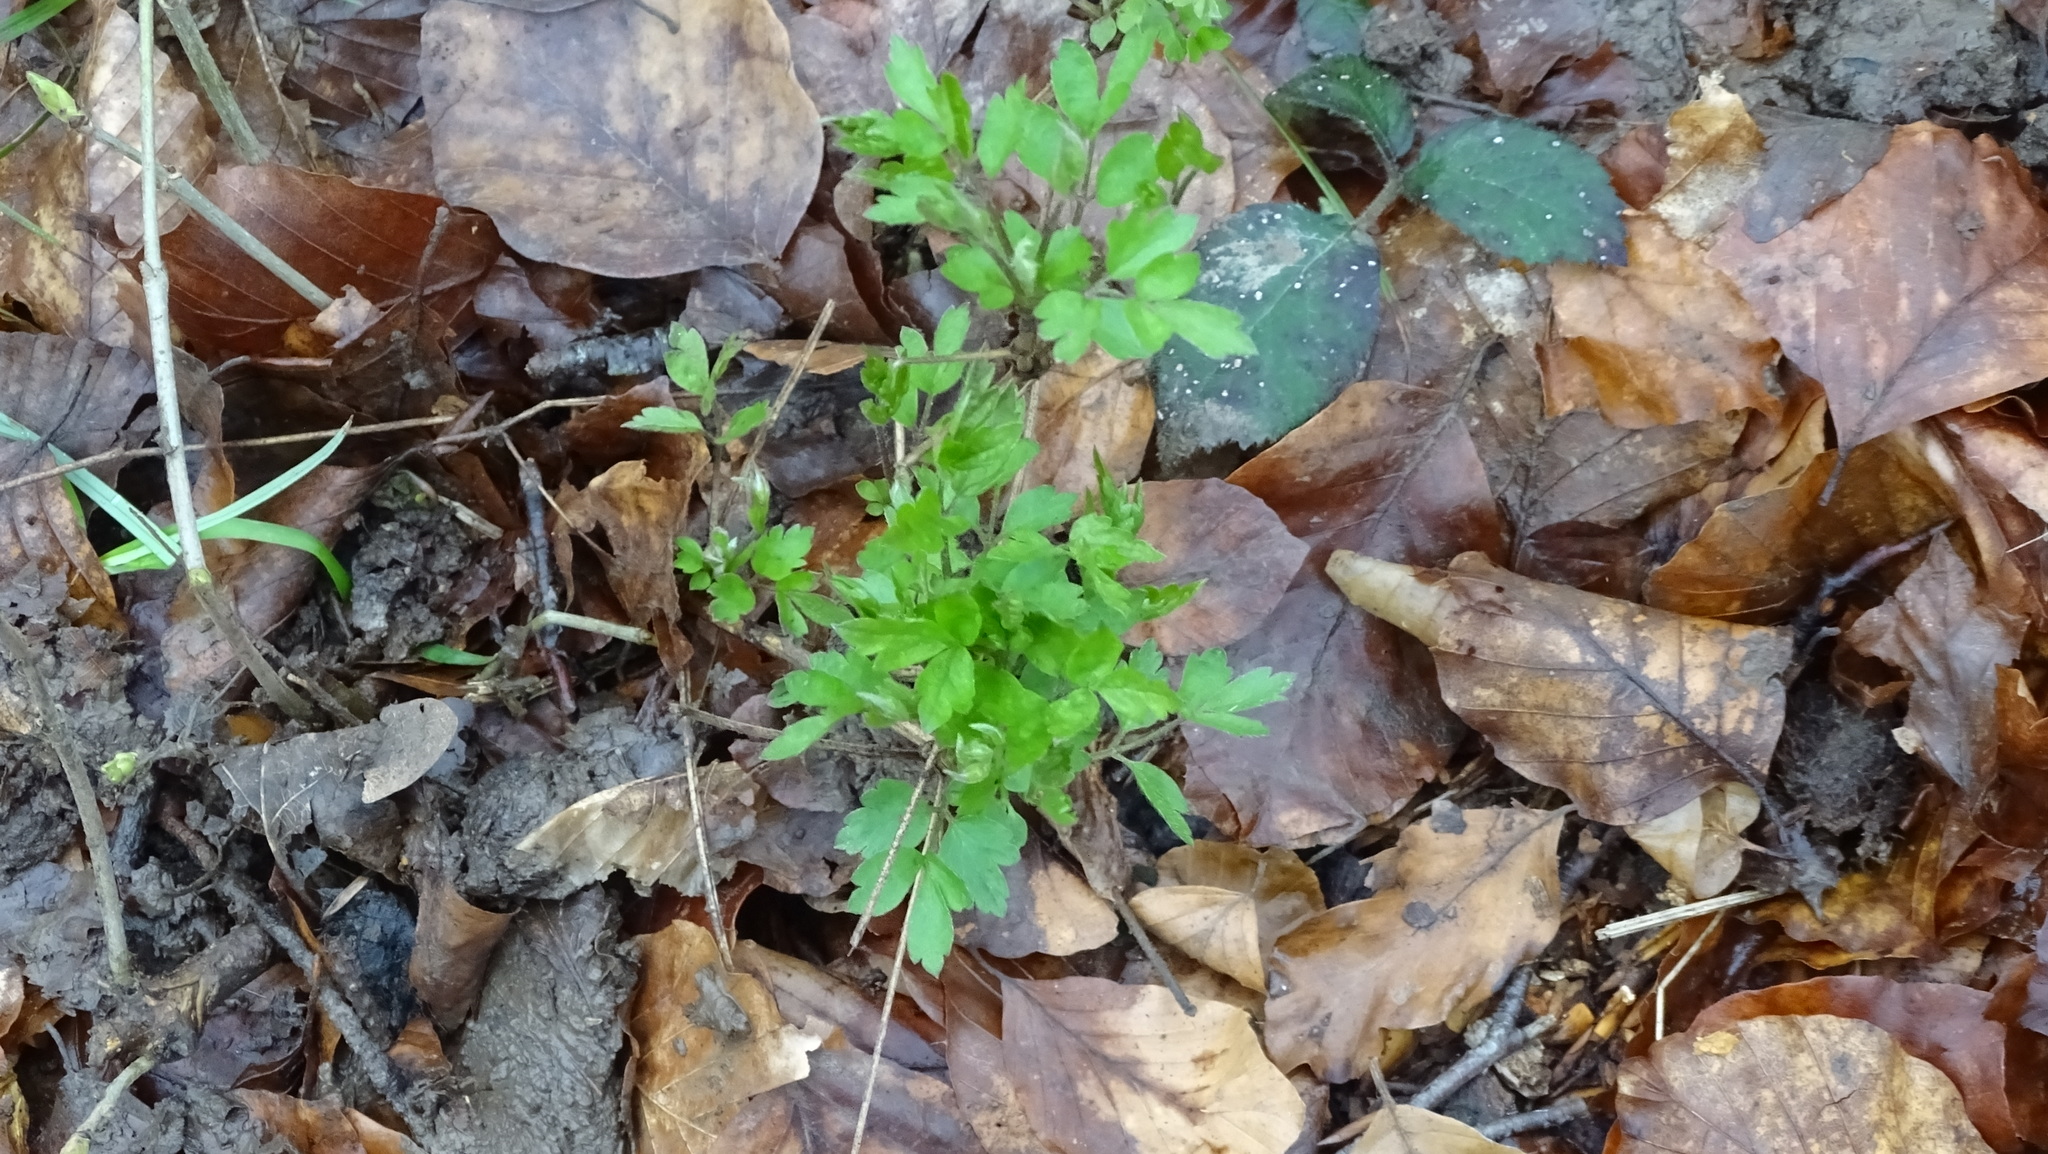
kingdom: Plantae
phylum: Tracheophyta
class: Magnoliopsida
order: Ranunculales
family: Ranunculaceae
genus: Clematis
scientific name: Clematis vitalba
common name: Evergreen clematis
